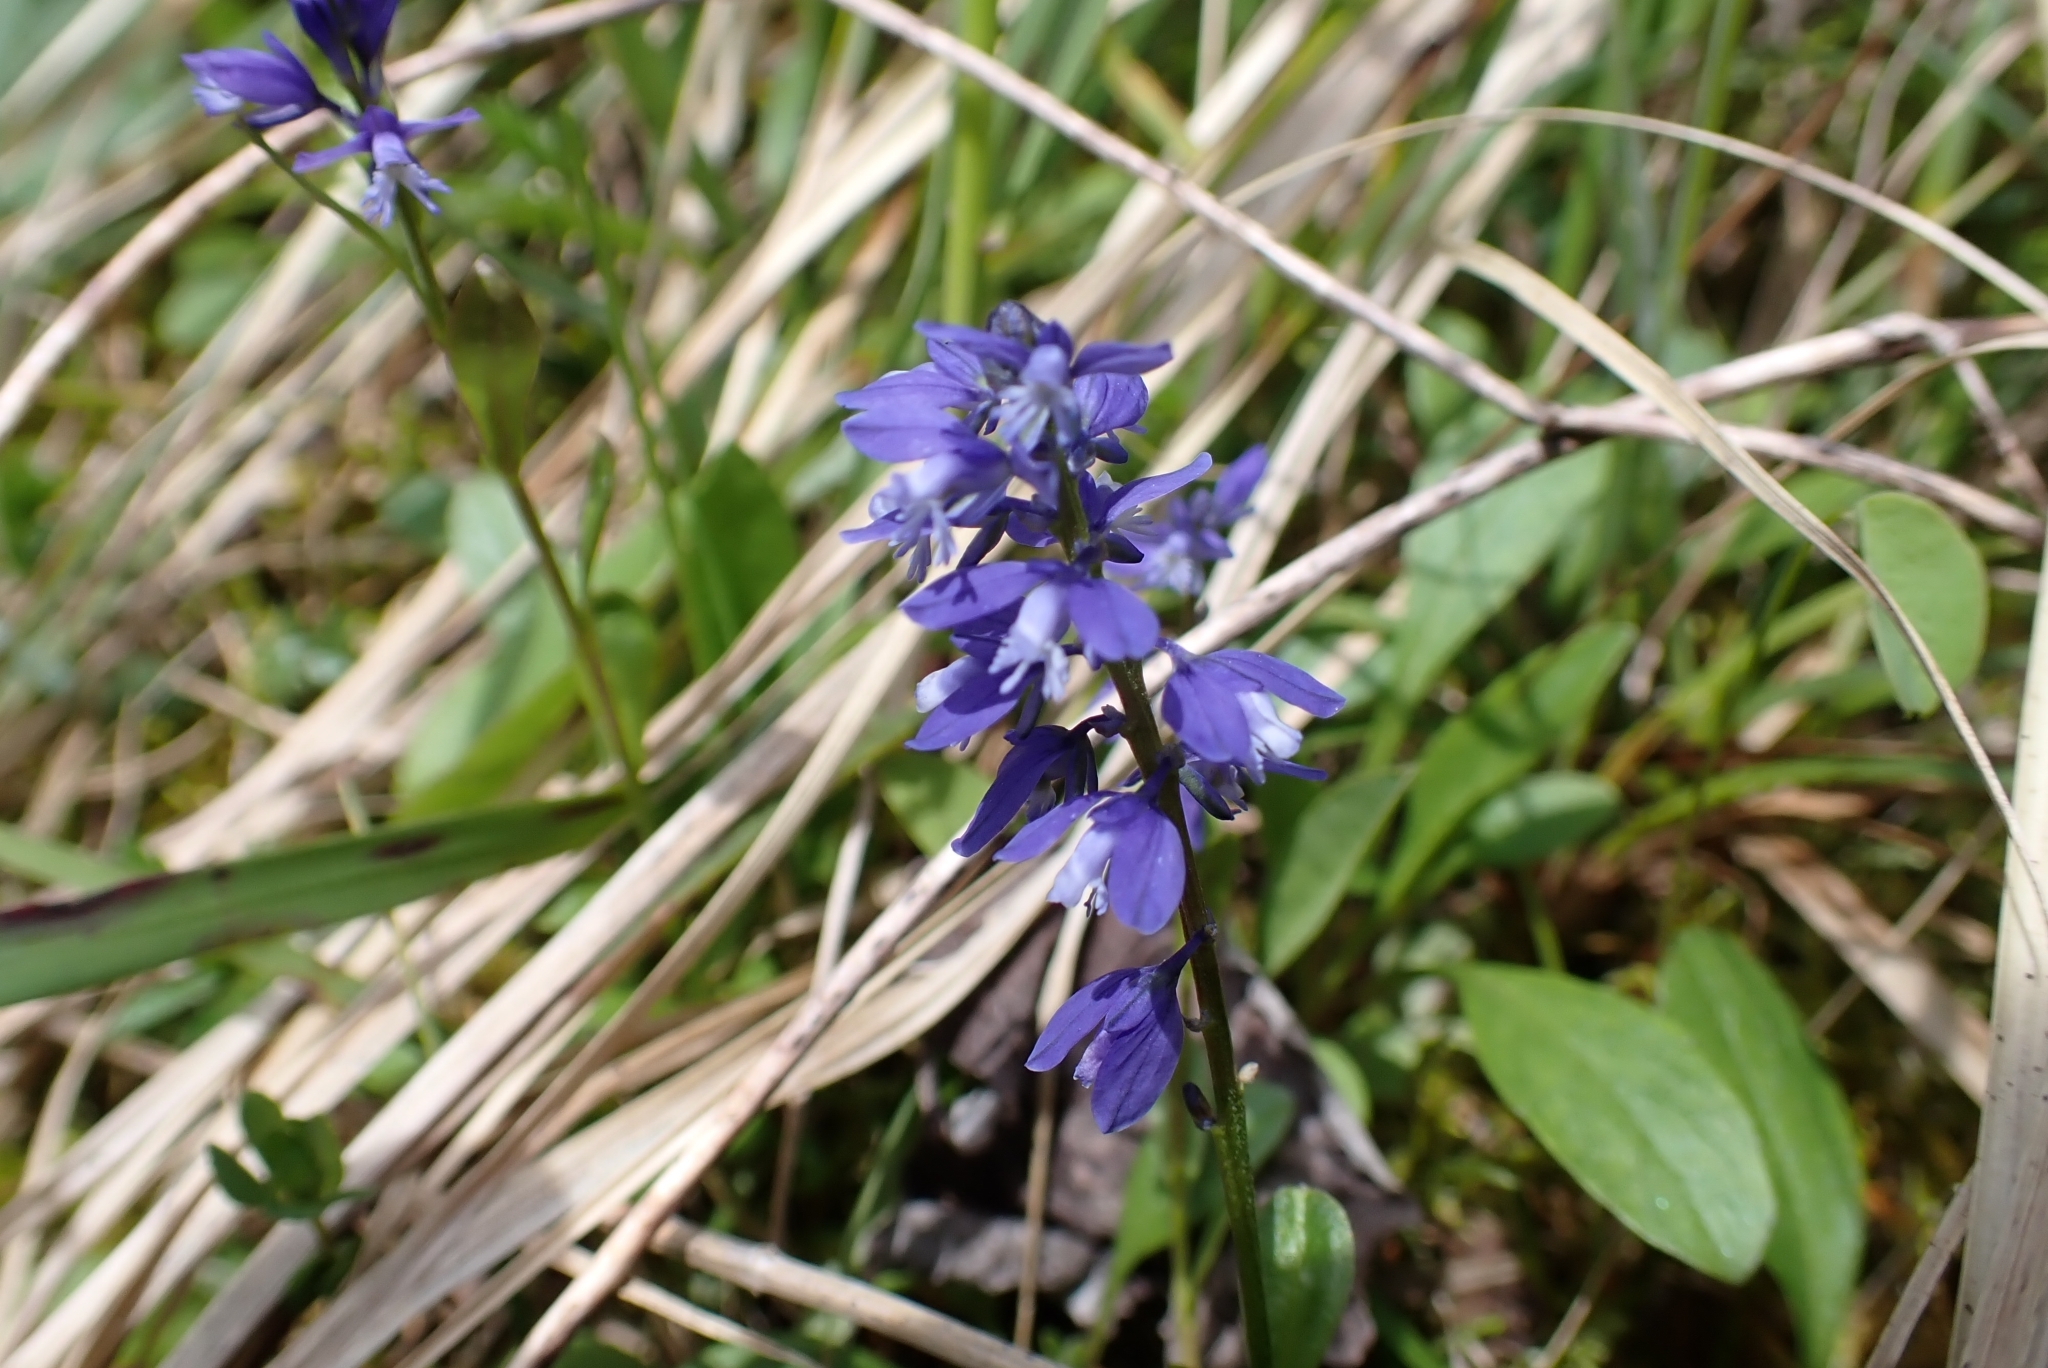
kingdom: Plantae
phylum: Tracheophyta
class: Magnoliopsida
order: Fabales
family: Polygalaceae
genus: Polygala
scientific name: Polygala alpestris
